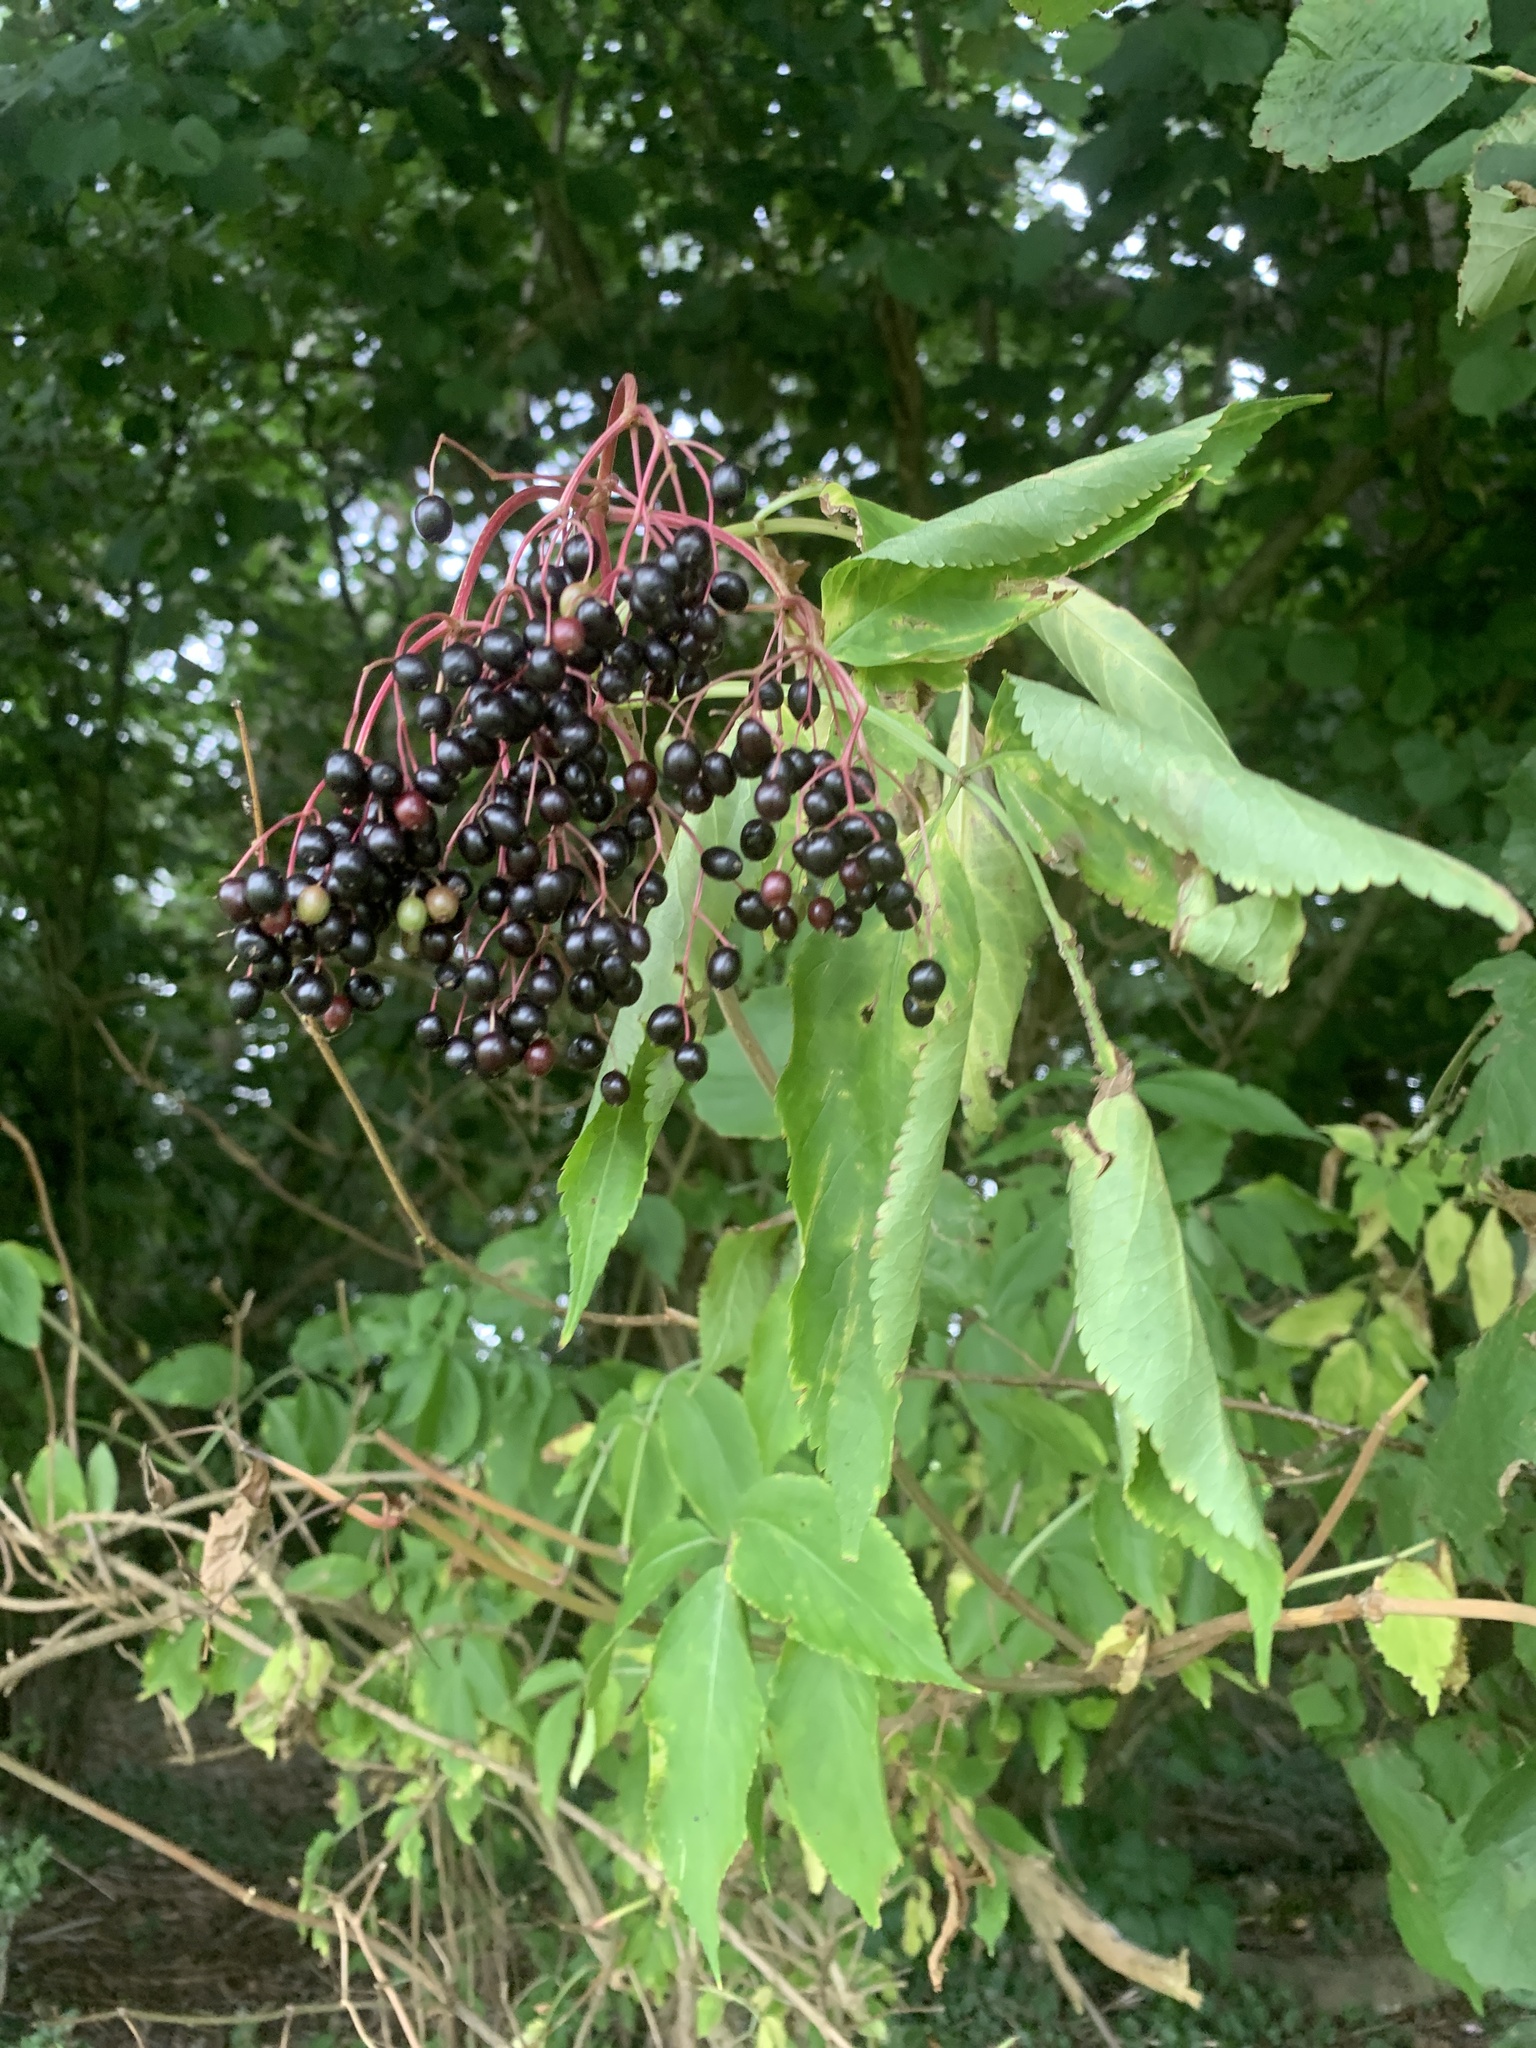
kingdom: Plantae
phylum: Tracheophyta
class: Magnoliopsida
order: Dipsacales
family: Viburnaceae
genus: Sambucus
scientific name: Sambucus nigra
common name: Elder
